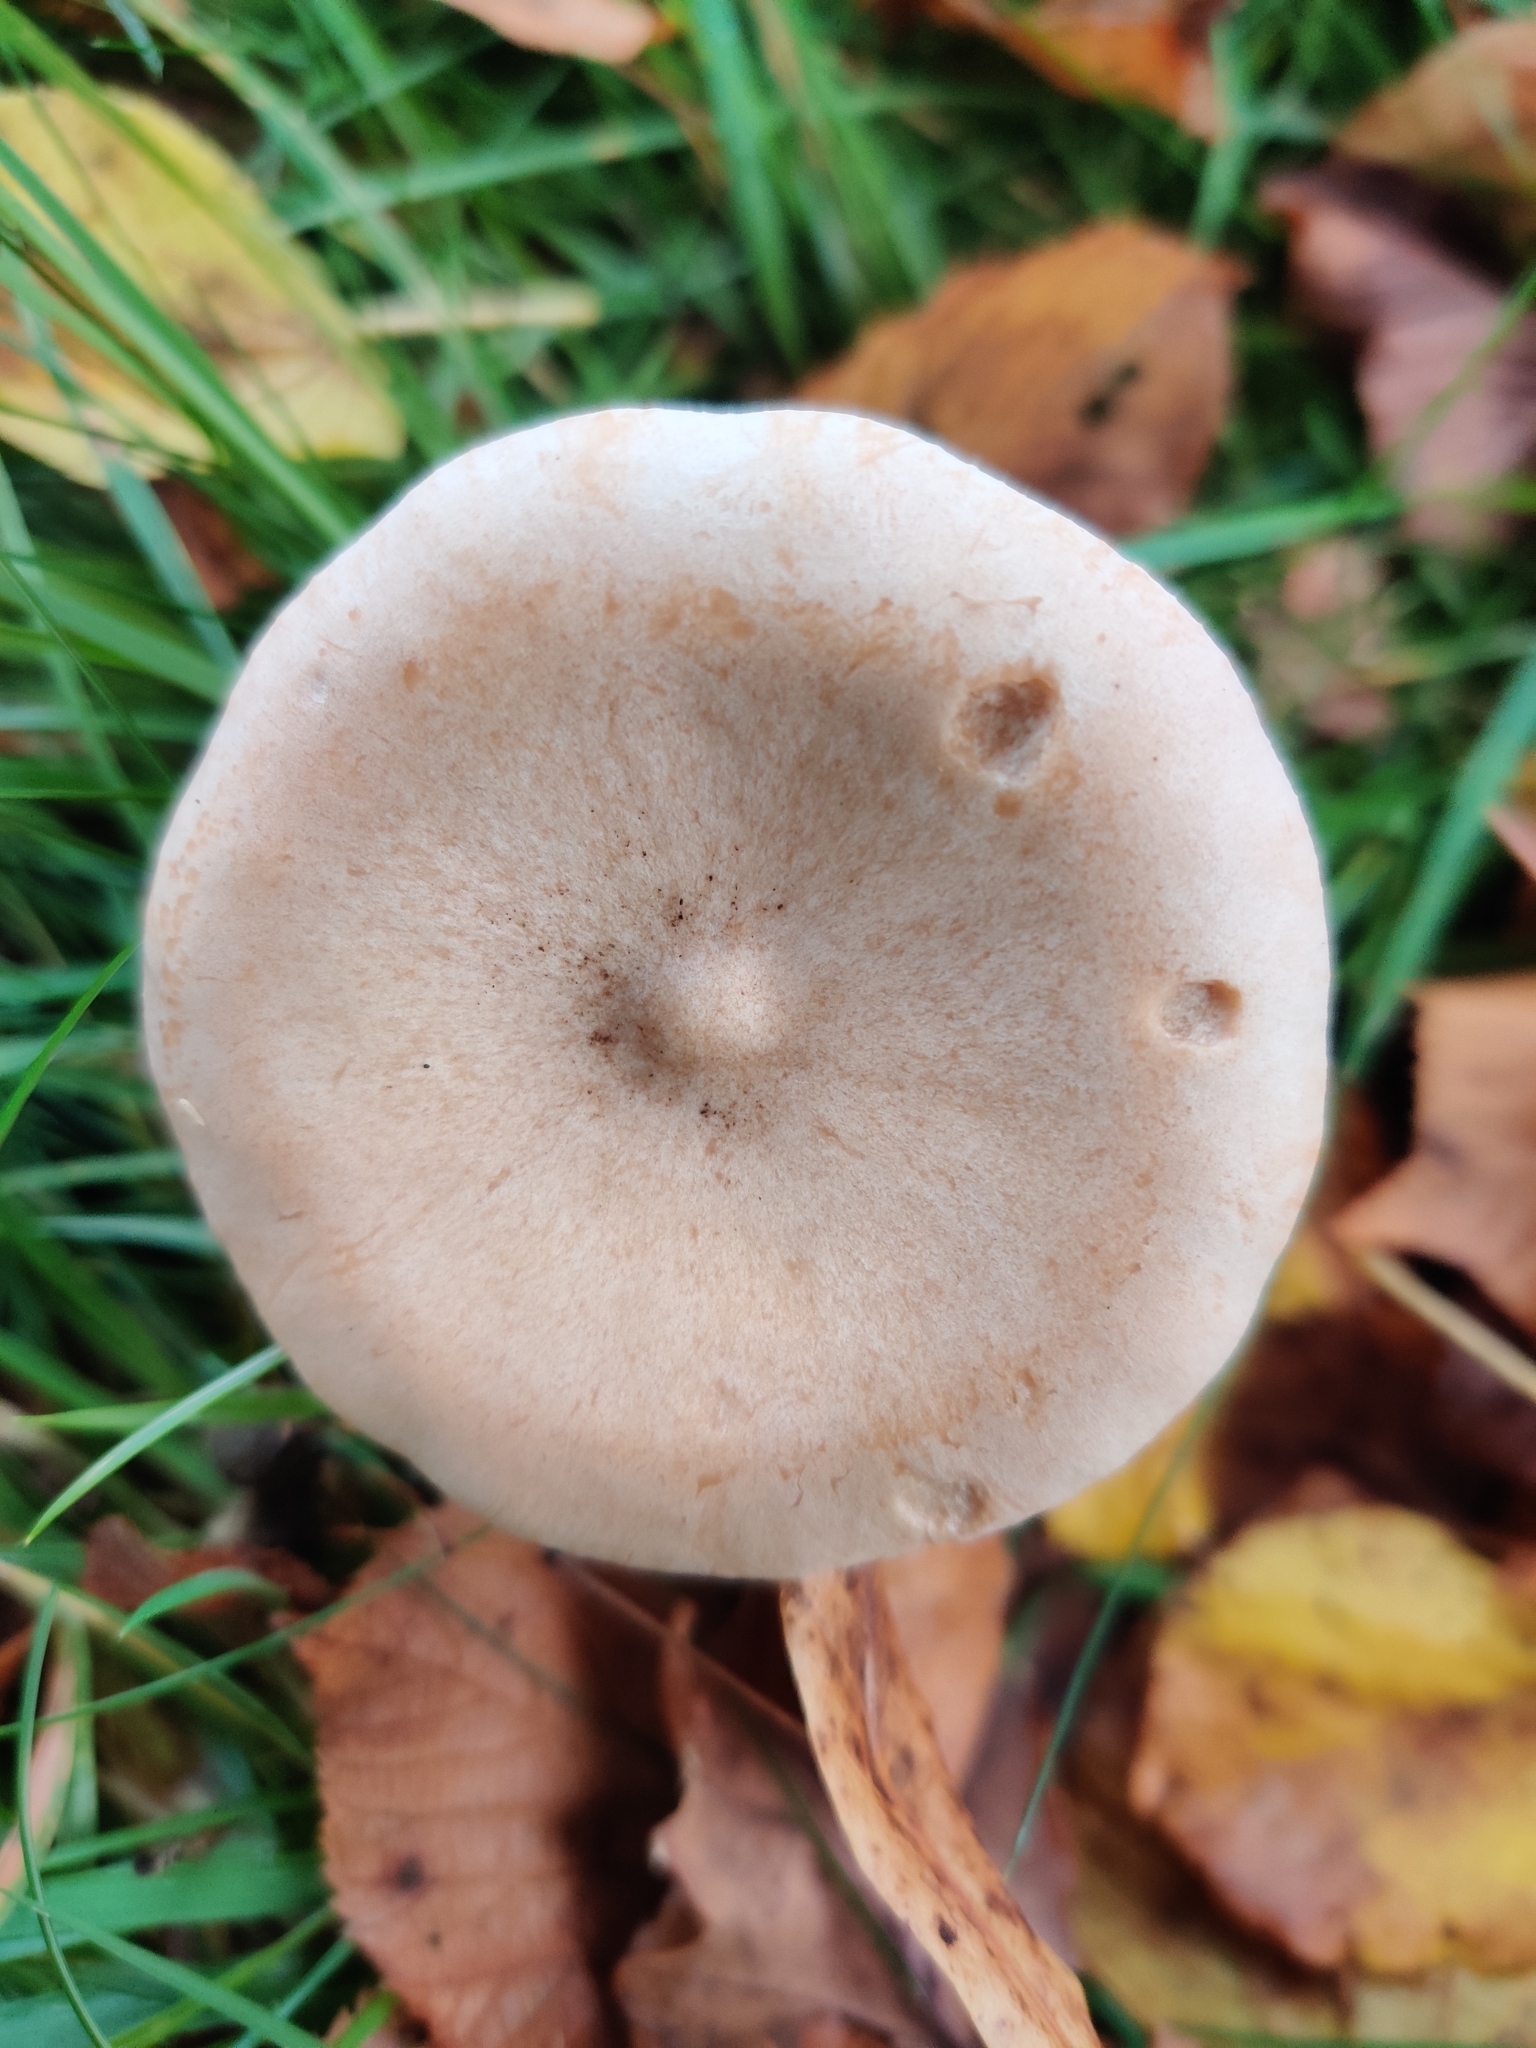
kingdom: Fungi
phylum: Basidiomycota
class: Agaricomycetes
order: Agaricales
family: Tricholomataceae
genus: Infundibulicybe
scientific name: Infundibulicybe geotropa
